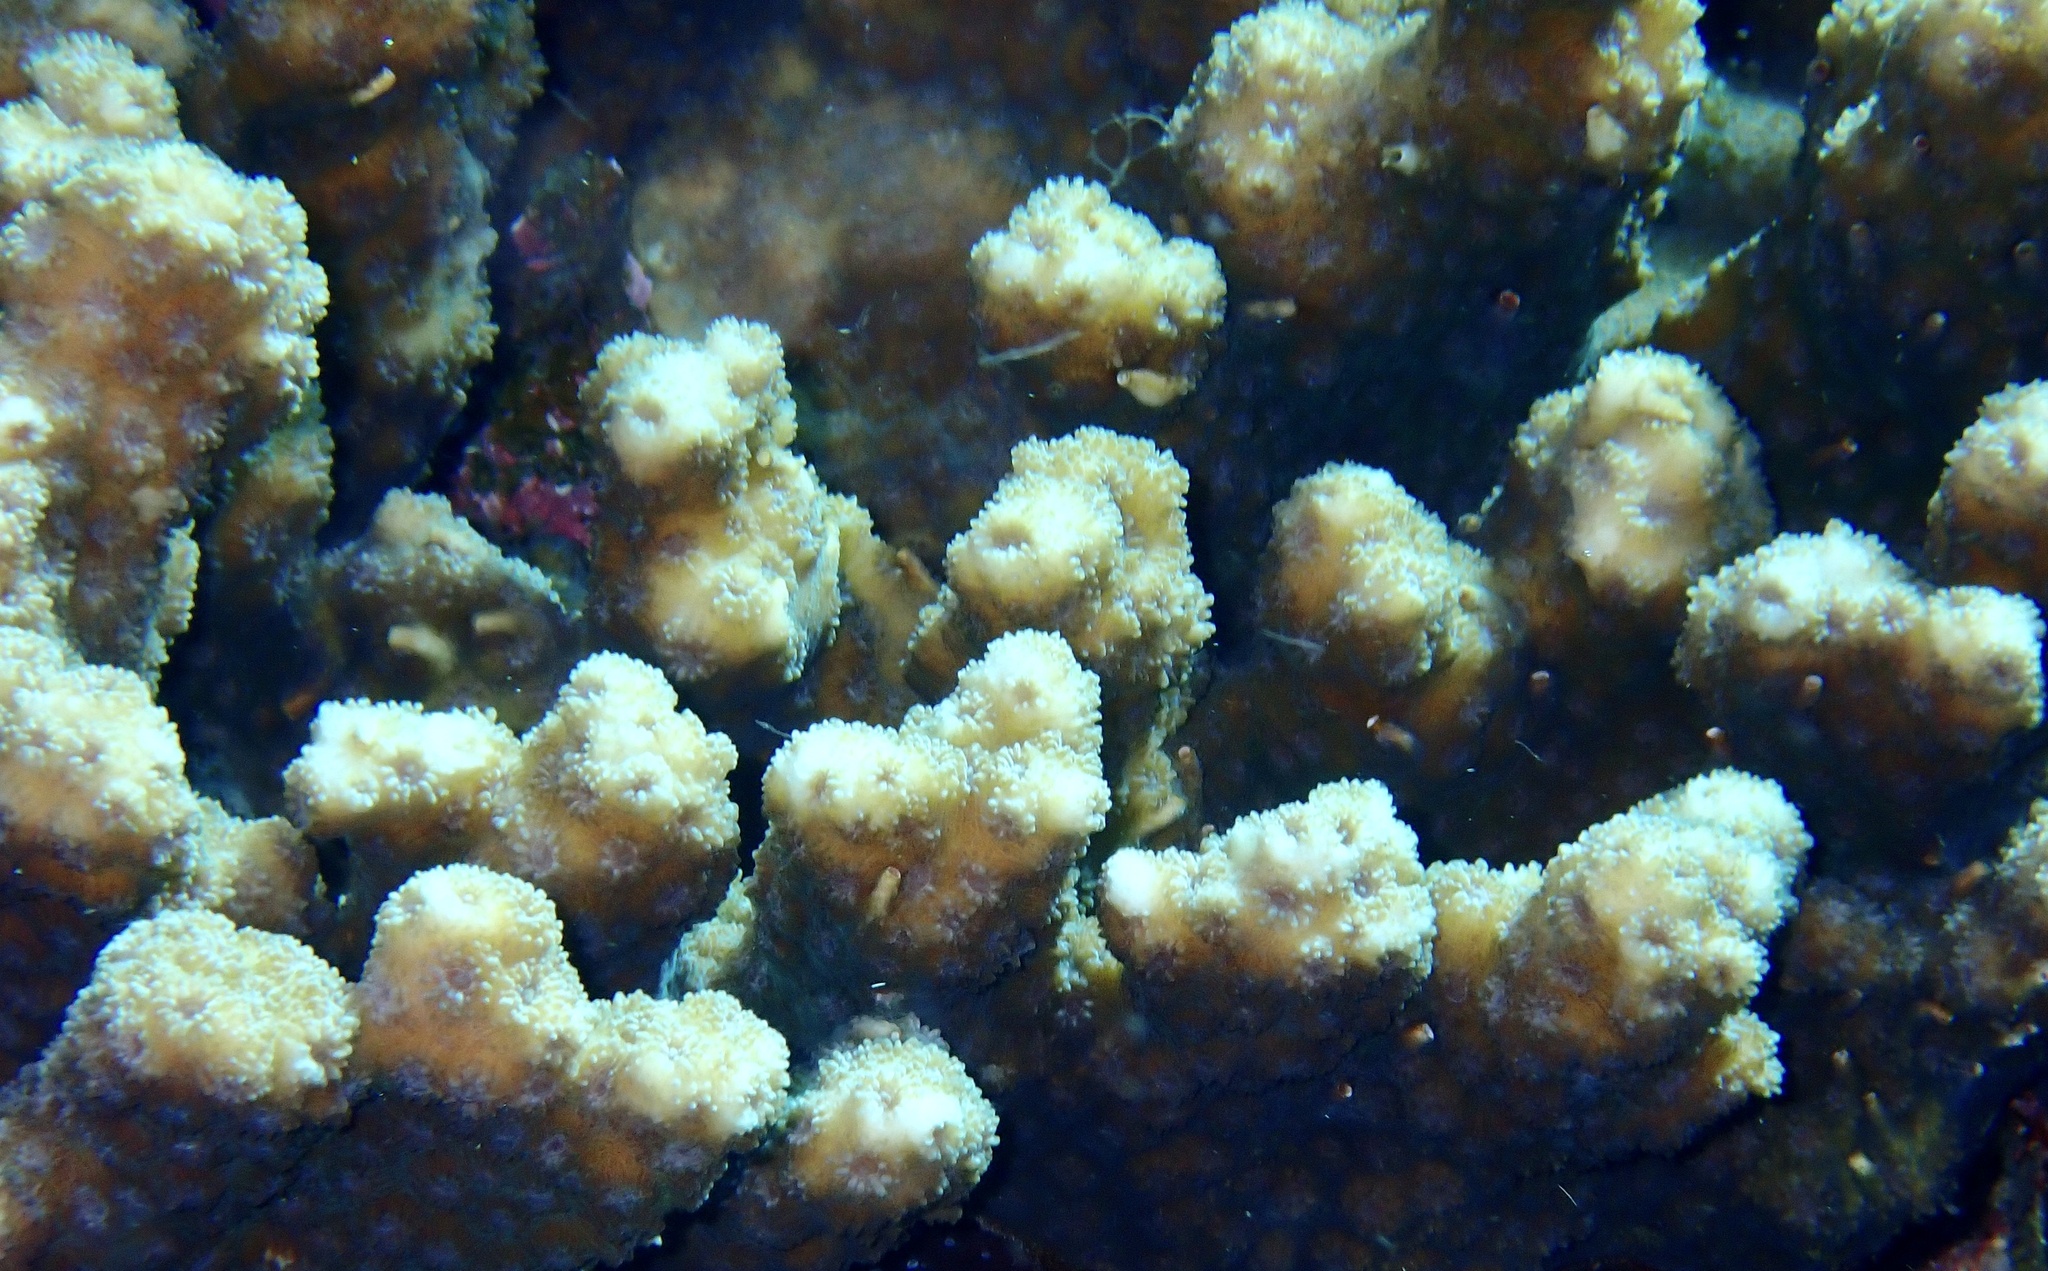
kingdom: Animalia
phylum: Cnidaria
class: Anthozoa
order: Scleractinia
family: Merulinidae
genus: Echinopora
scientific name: Echinopora hirsutissima
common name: Hedgehog coral
